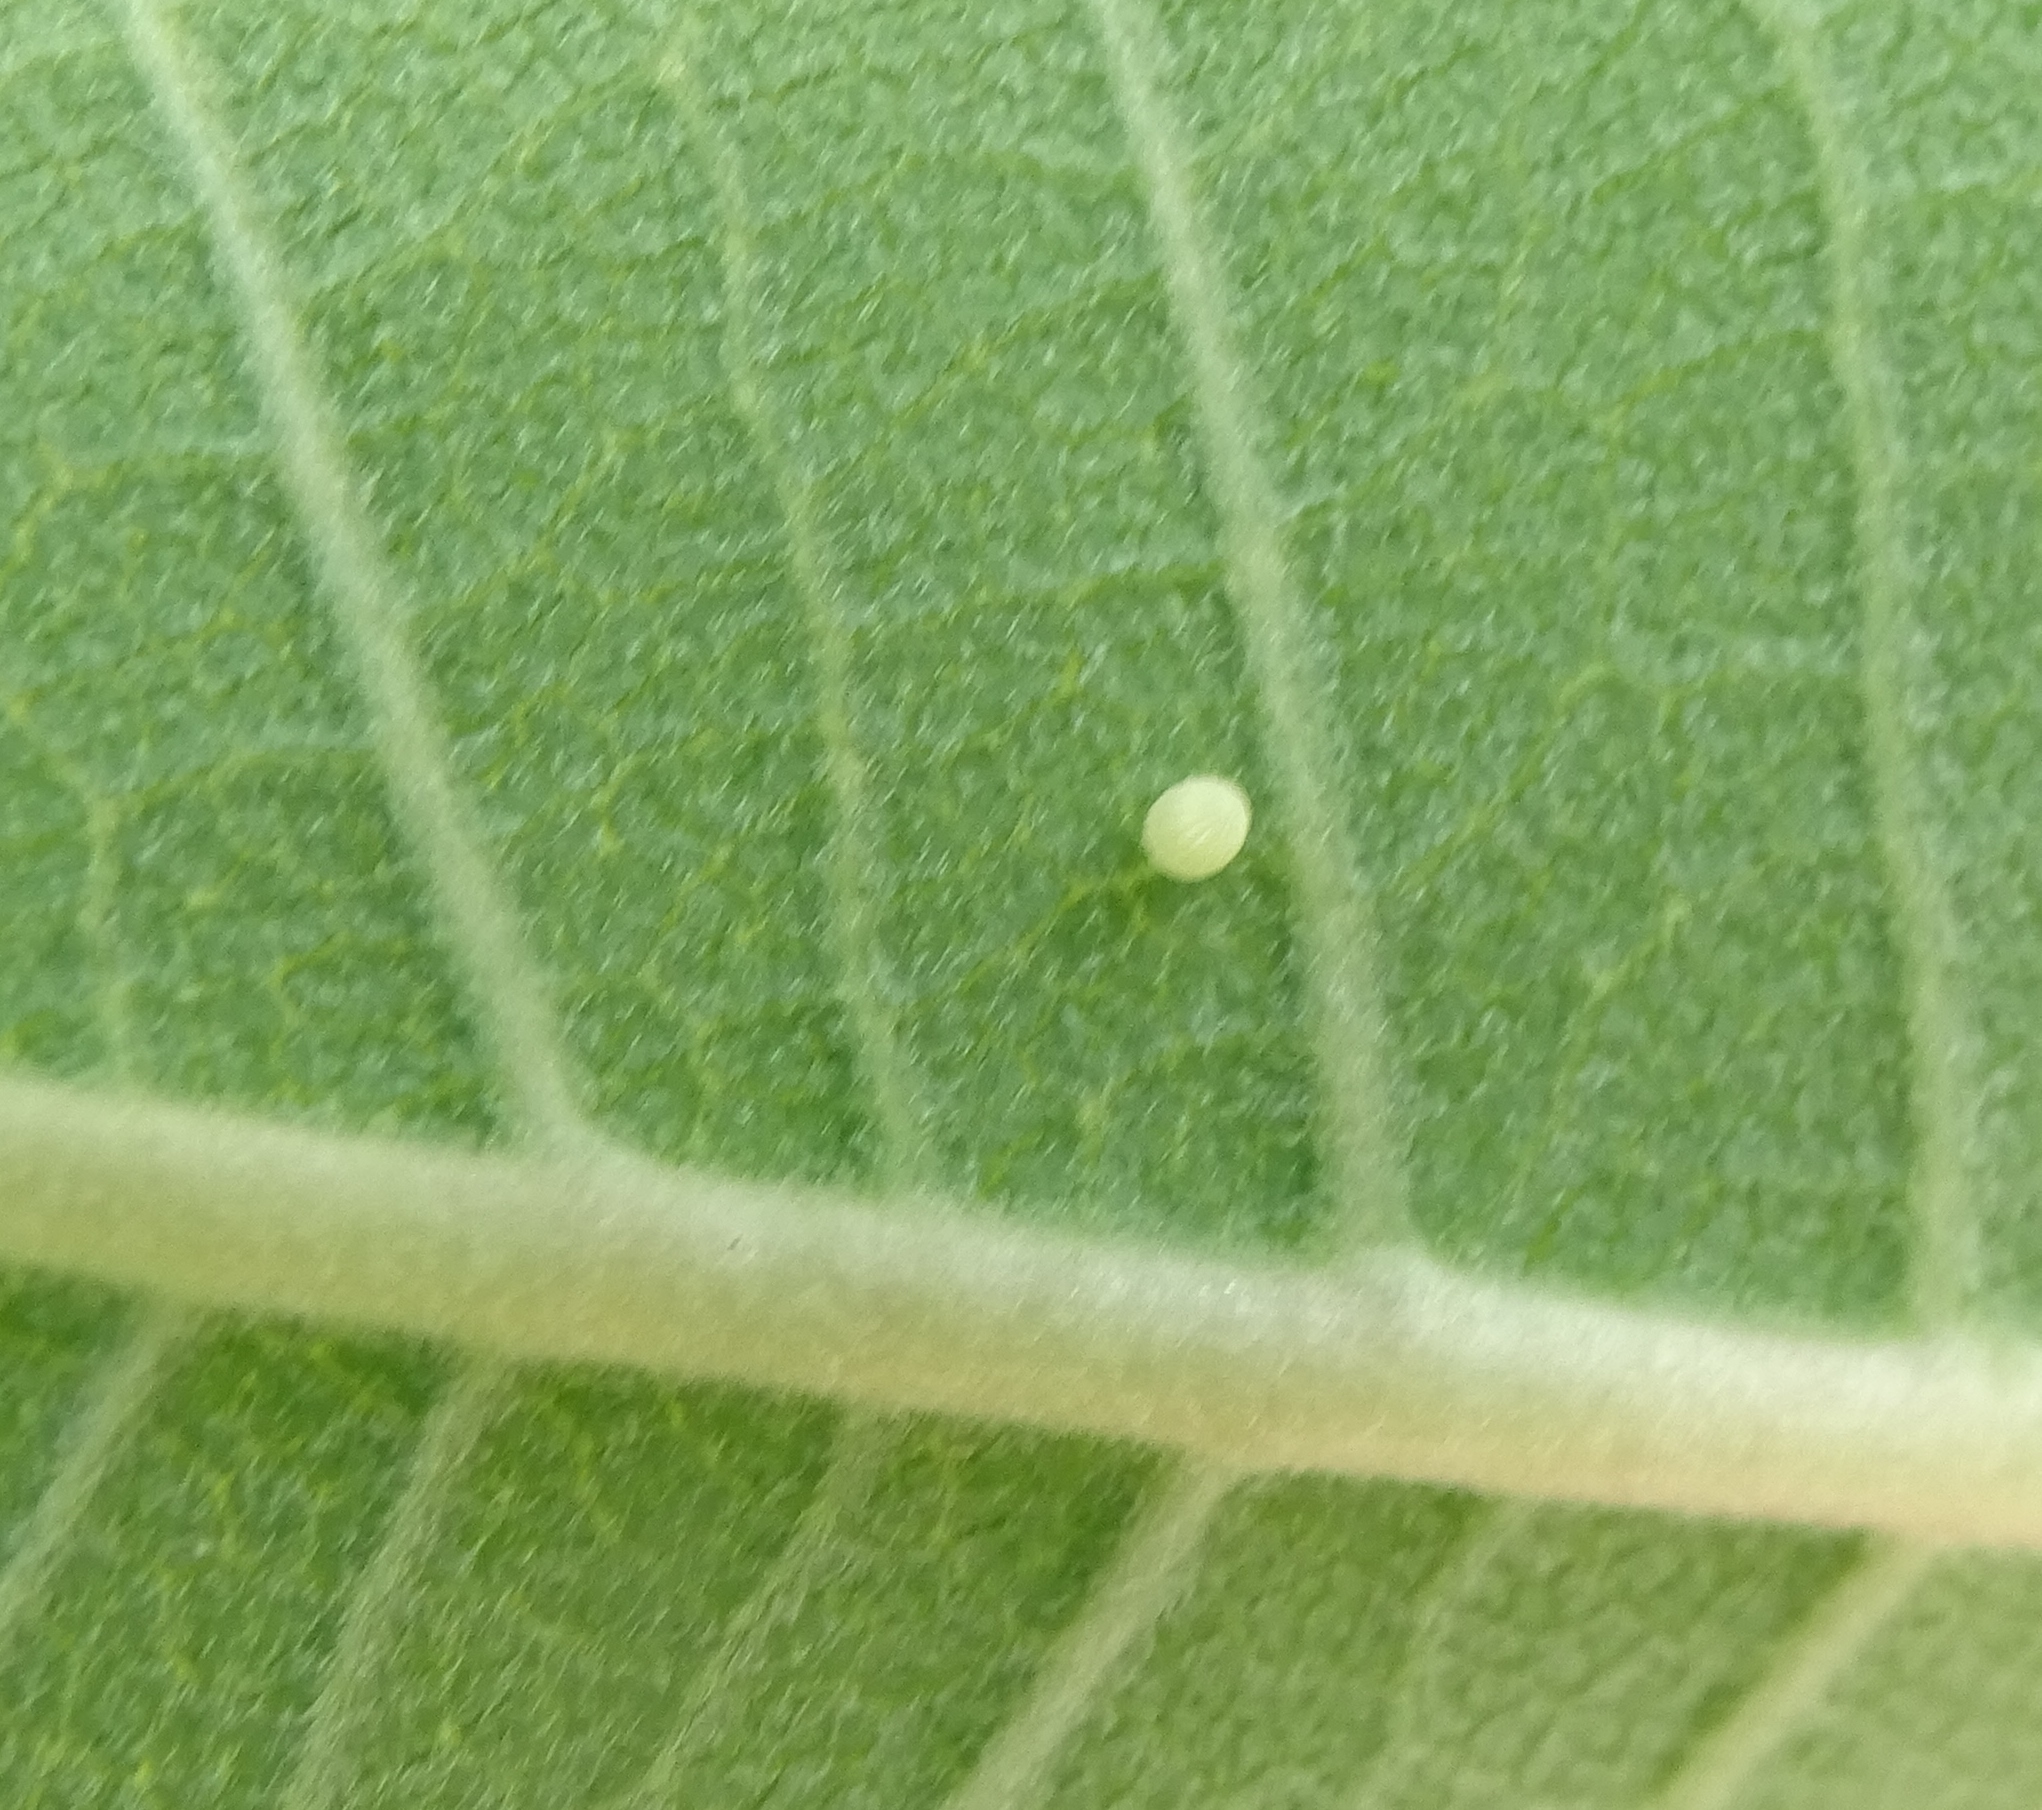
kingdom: Animalia
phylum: Arthropoda
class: Insecta
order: Lepidoptera
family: Nymphalidae
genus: Danaus
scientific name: Danaus plexippus
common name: Monarch
